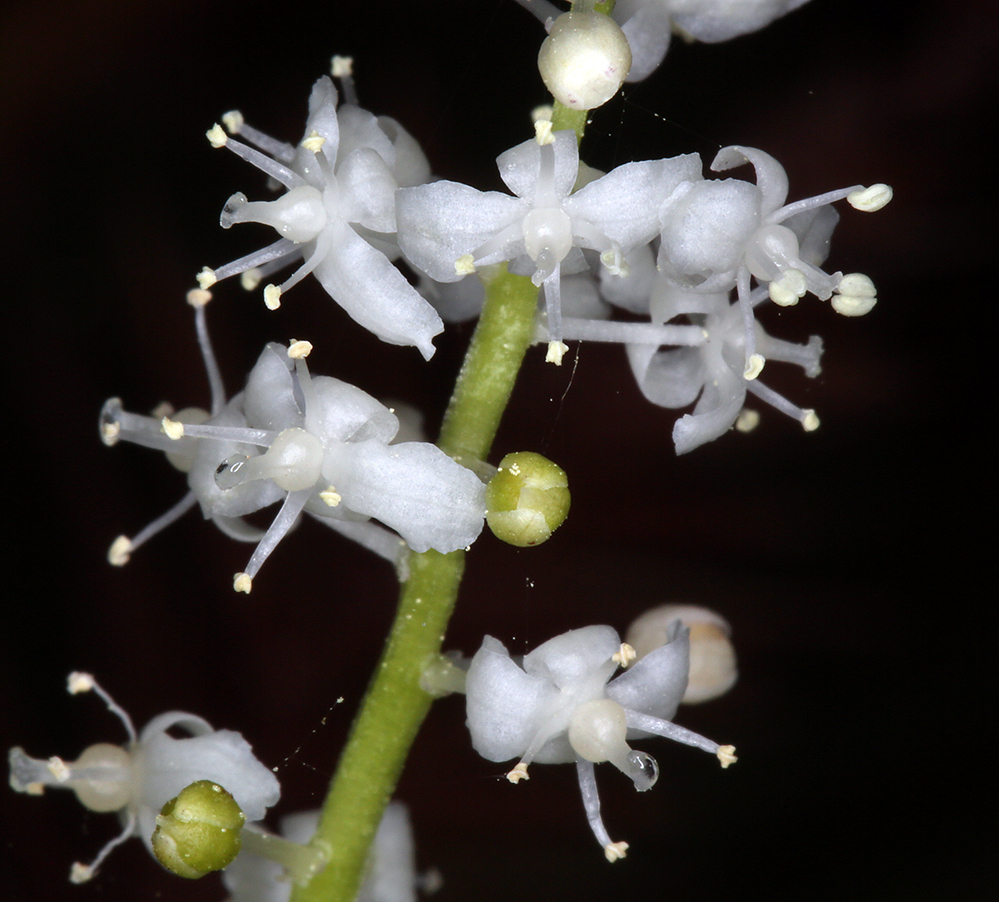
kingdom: Plantae
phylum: Tracheophyta
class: Liliopsida
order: Asparagales
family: Asparagaceae
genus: Maianthemum
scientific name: Maianthemum dilatatum
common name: False lily-of-the-valley
